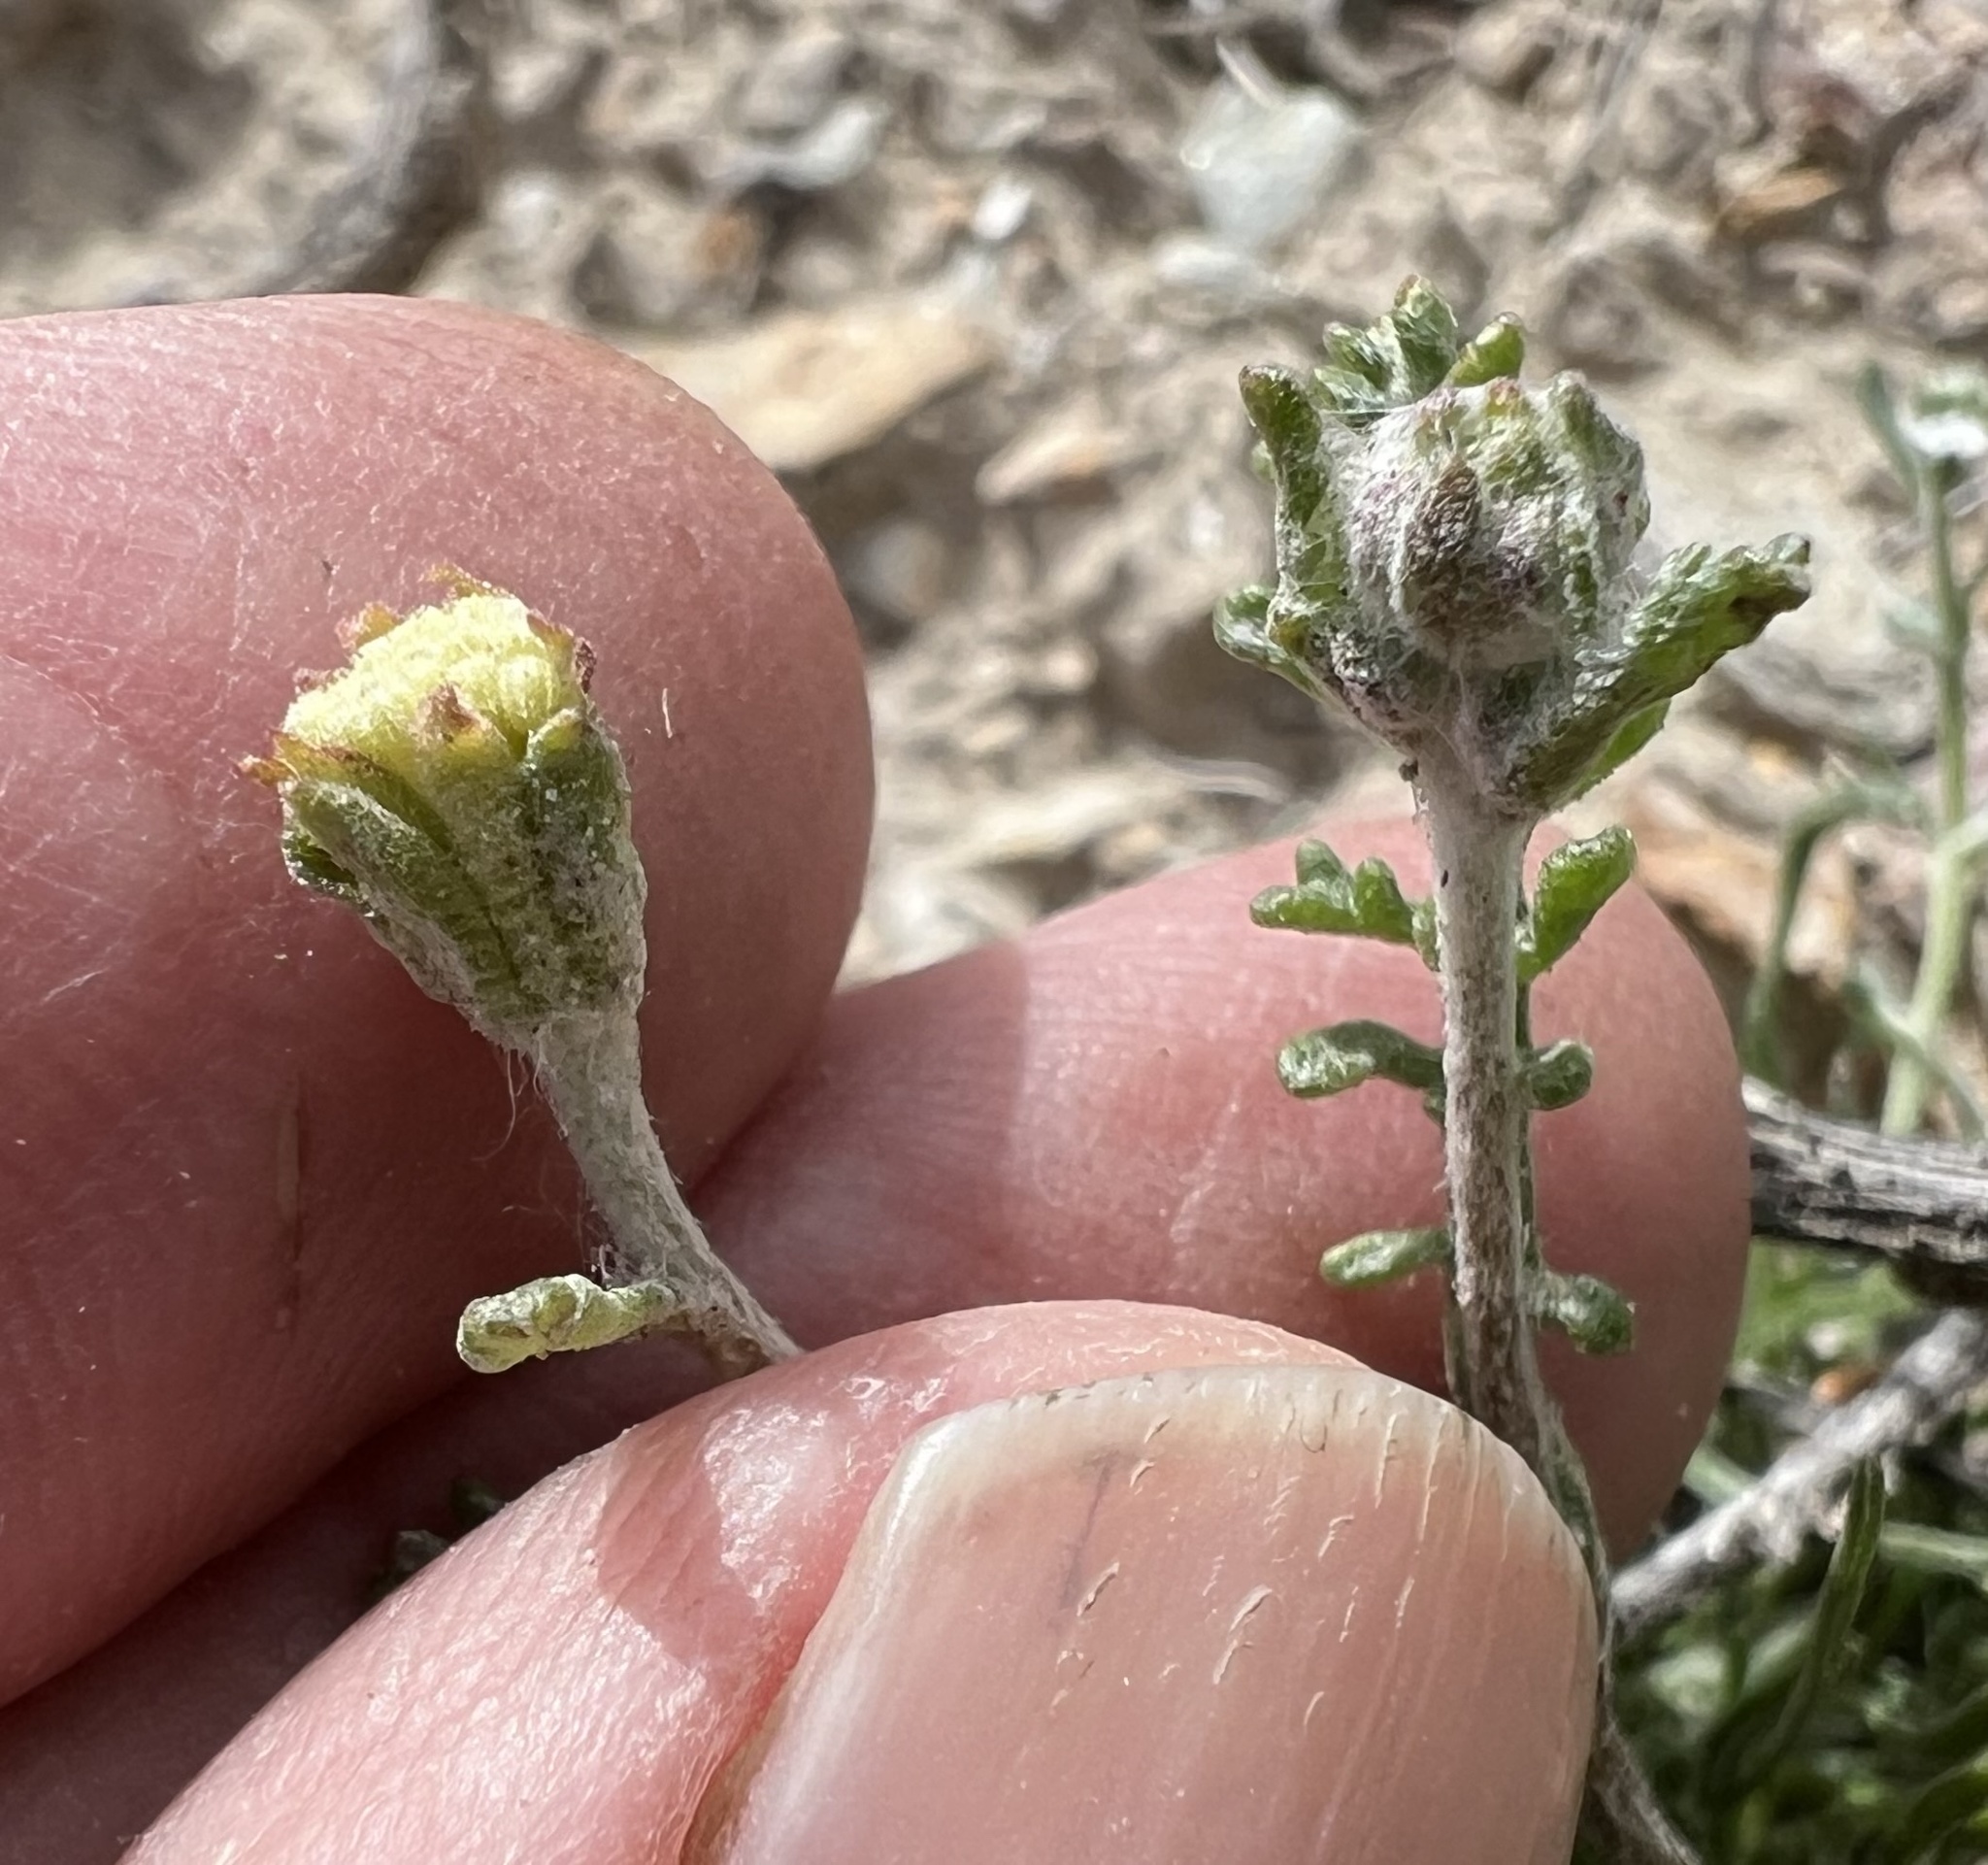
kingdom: Plantae
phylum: Tracheophyta
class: Magnoliopsida
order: Asterales
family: Asteraceae
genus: Chaenactis
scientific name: Chaenactis stevioides
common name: Desert pincushion
